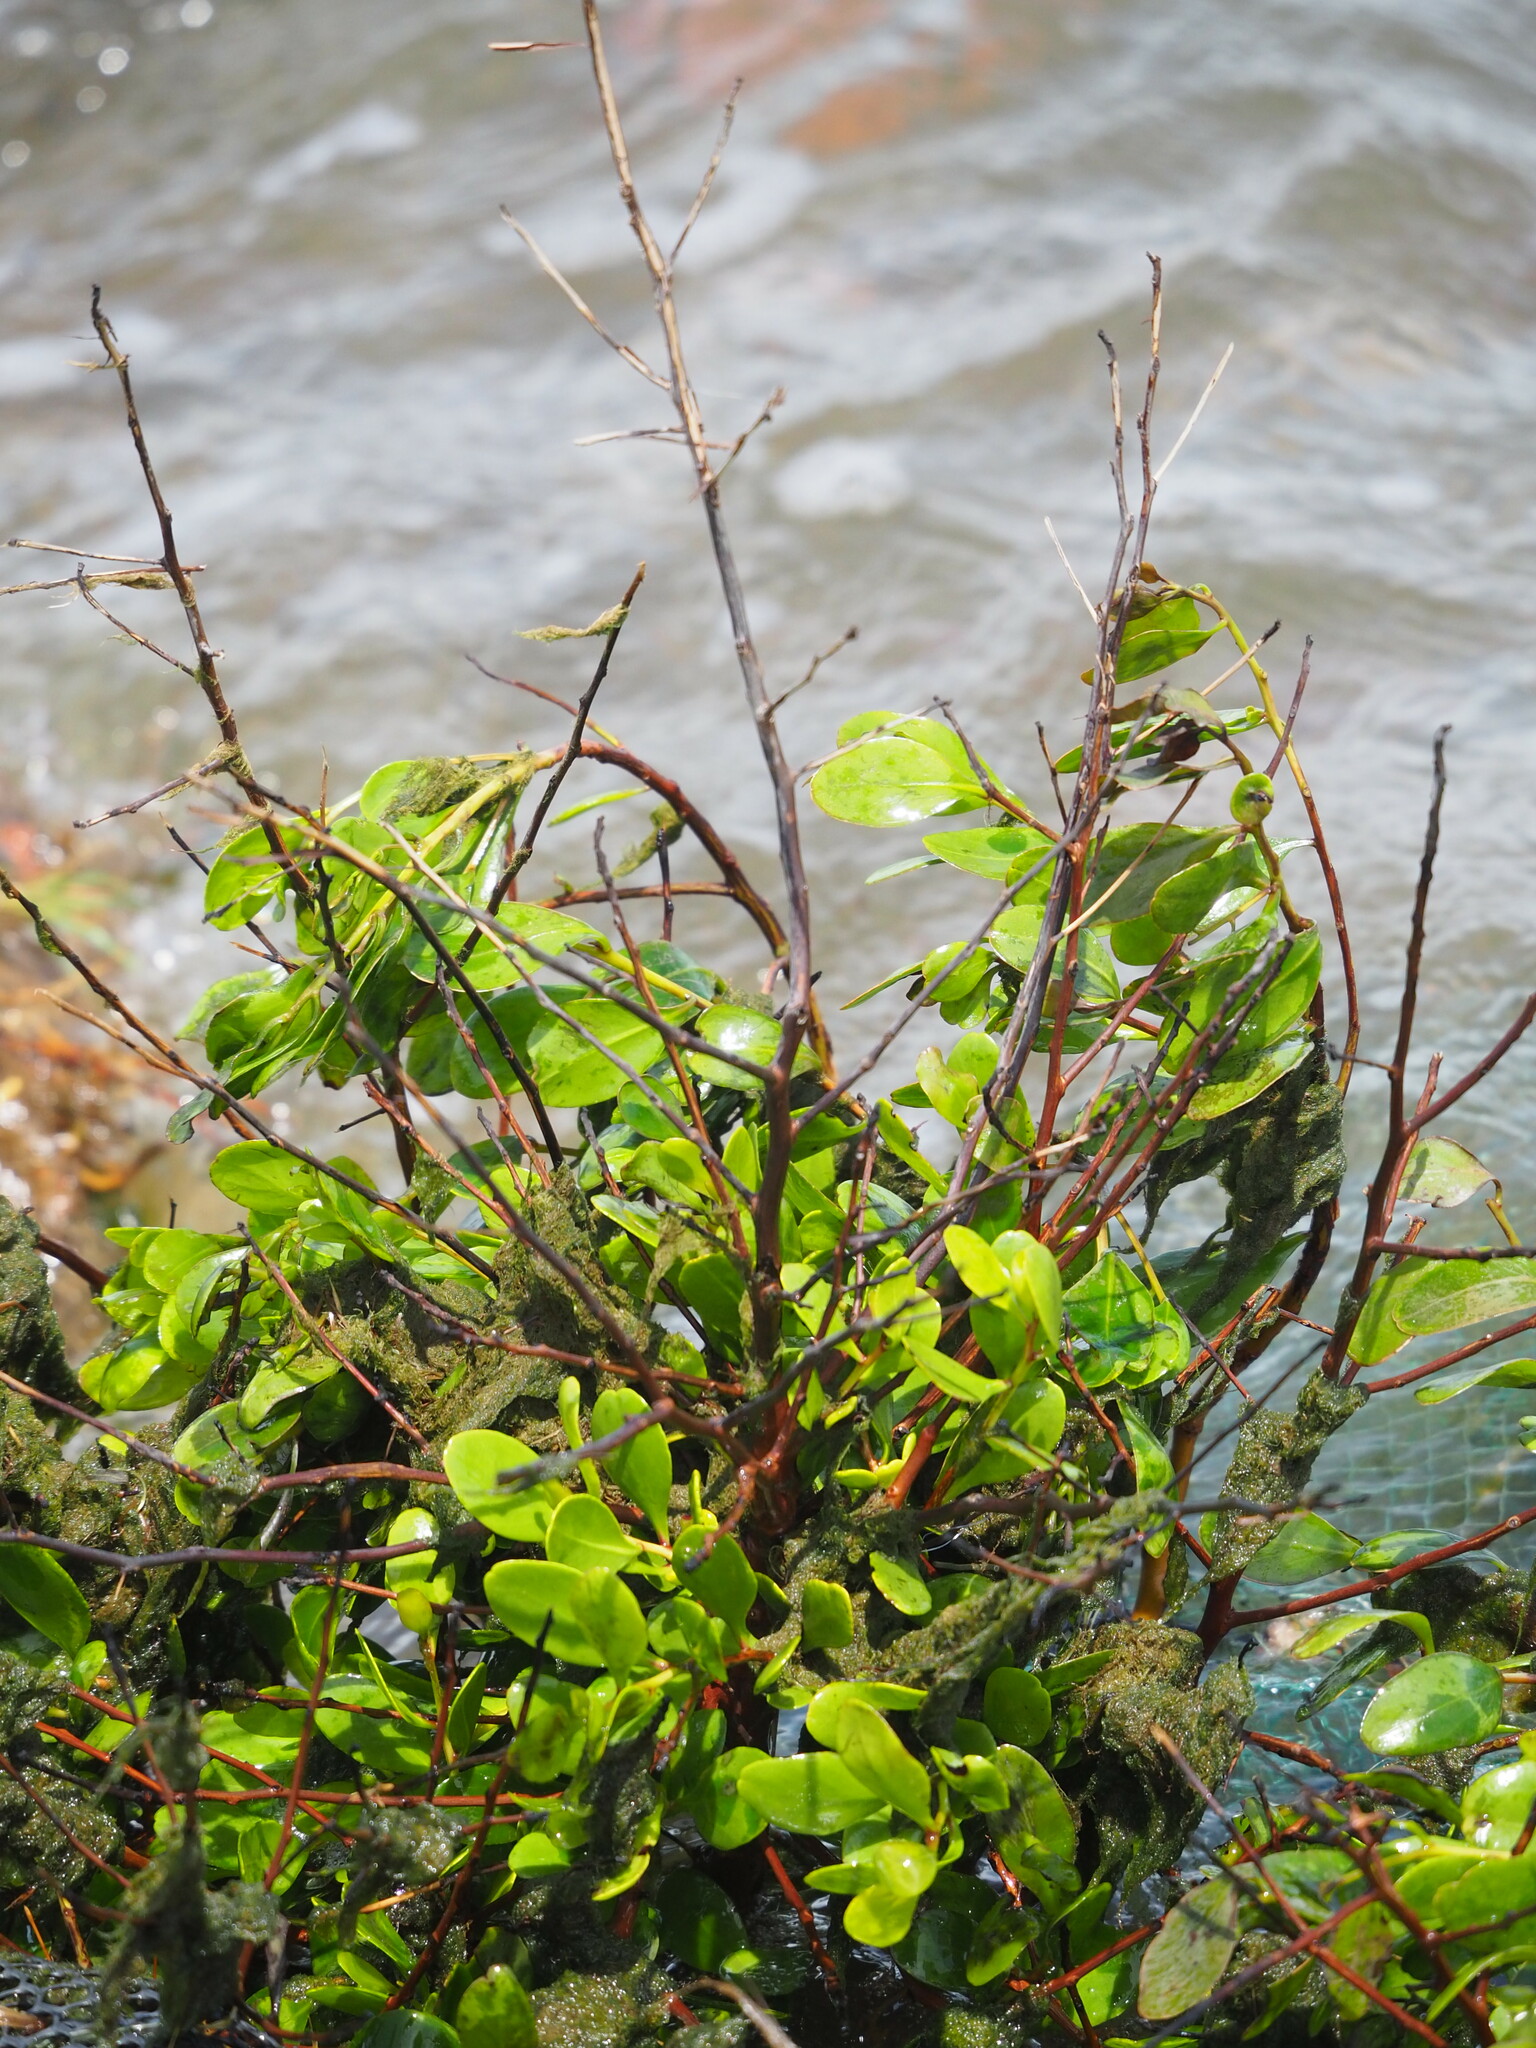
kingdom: Plantae
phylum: Tracheophyta
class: Magnoliopsida
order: Myrtales
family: Combretaceae
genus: Lumnitzera
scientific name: Lumnitzera racemosa
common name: White-flowered black mangrove
